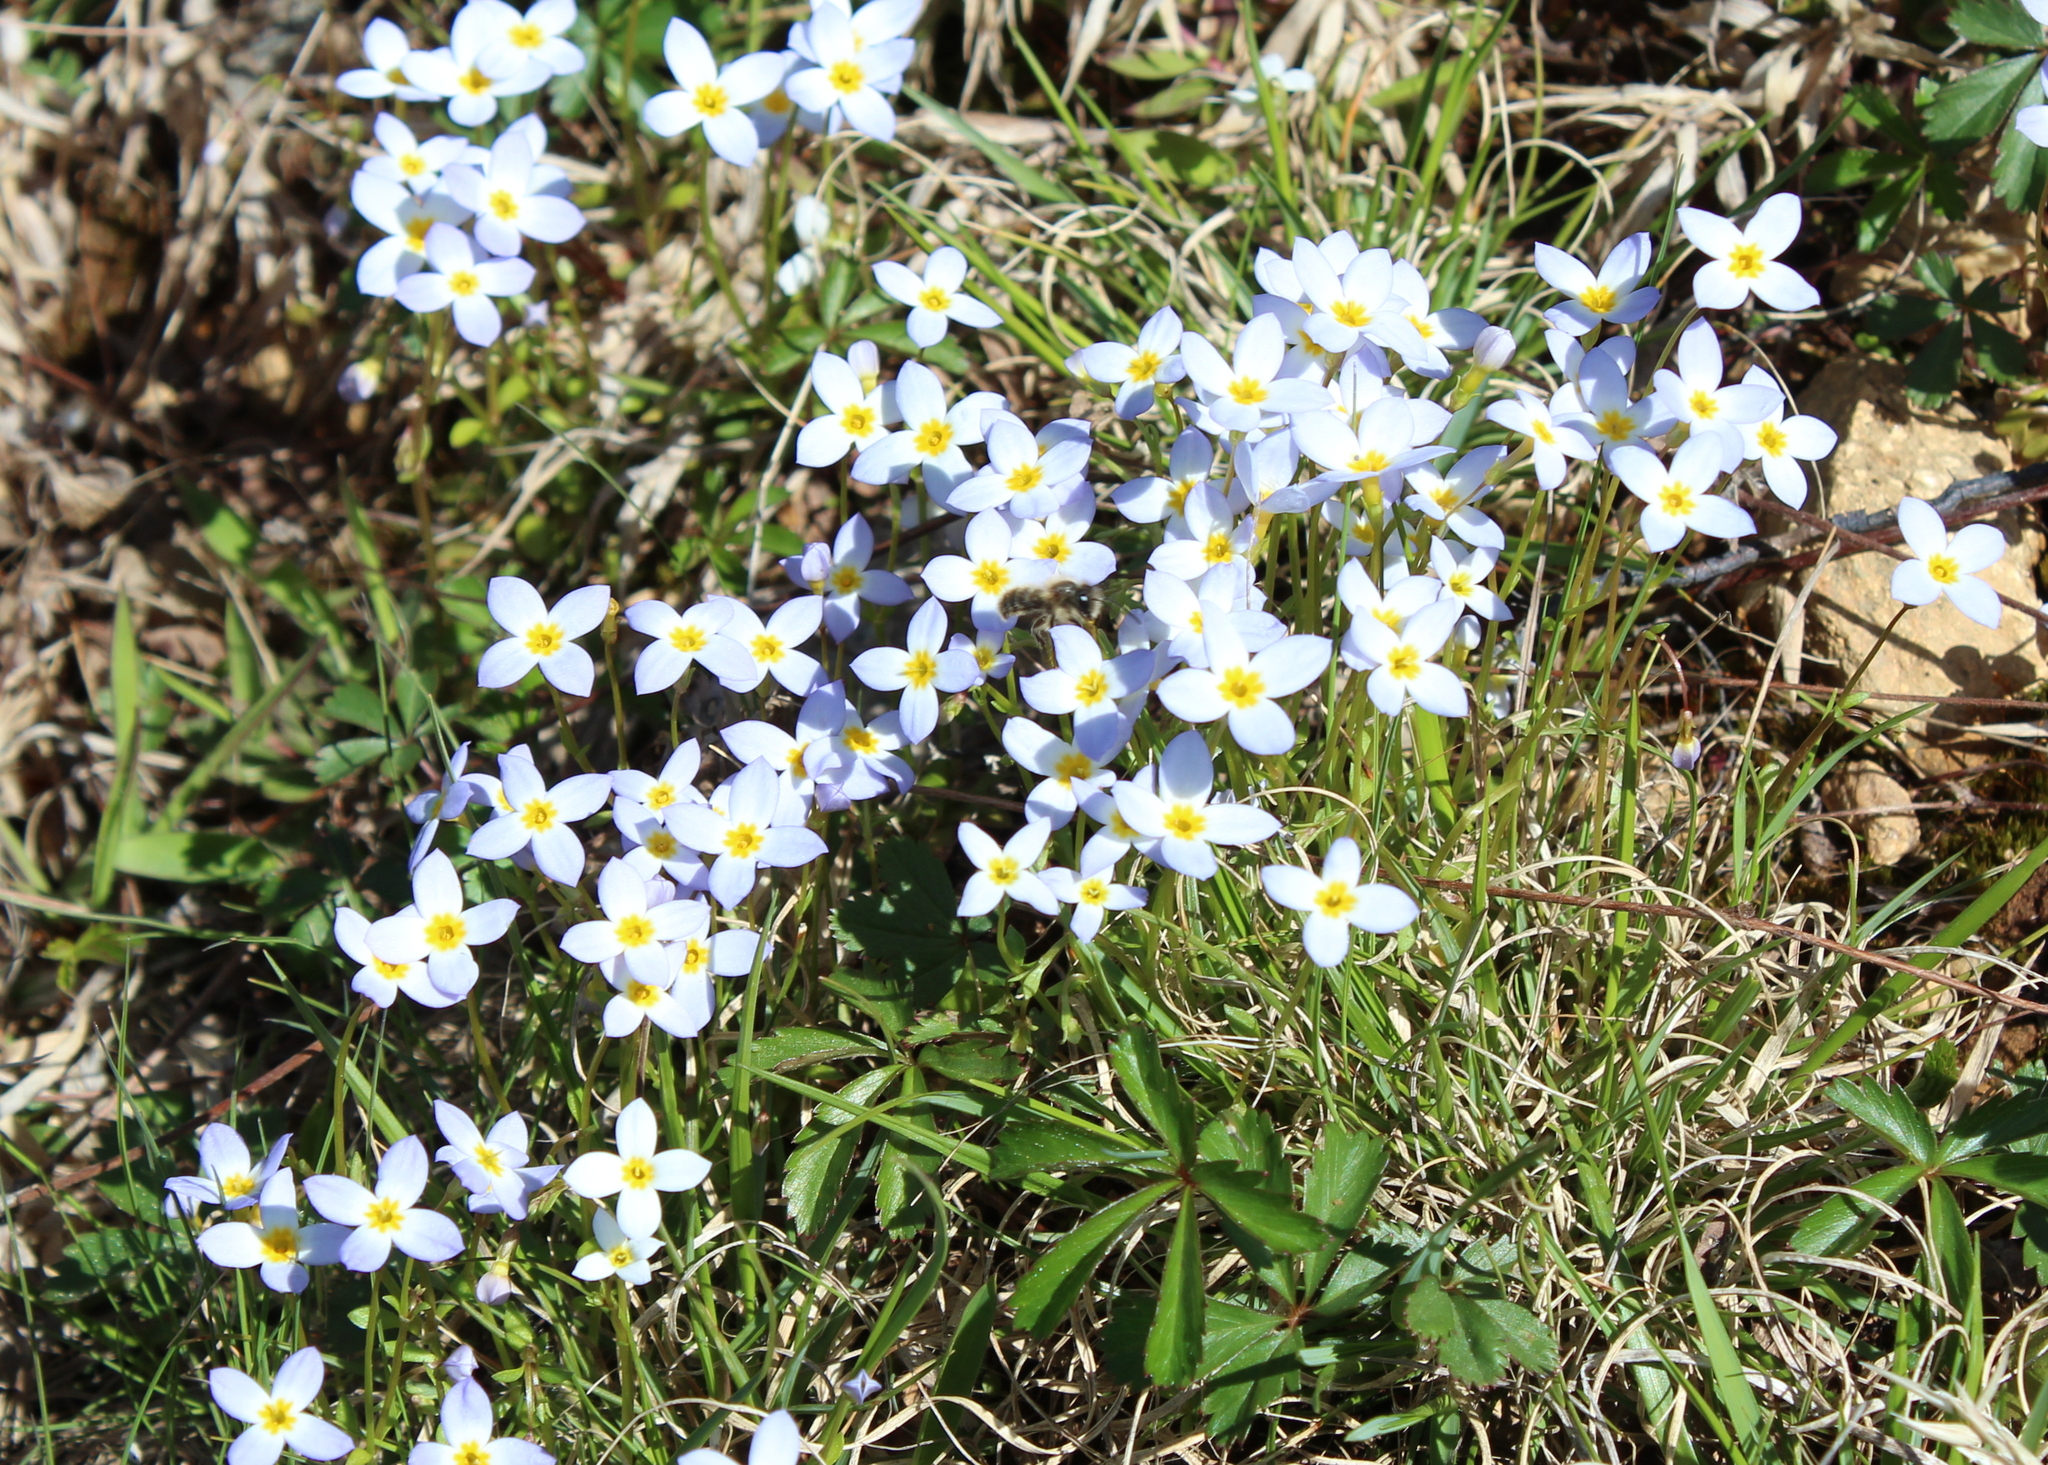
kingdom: Plantae
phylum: Tracheophyta
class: Magnoliopsida
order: Gentianales
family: Rubiaceae
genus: Houstonia
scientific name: Houstonia caerulea
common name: Bluets
